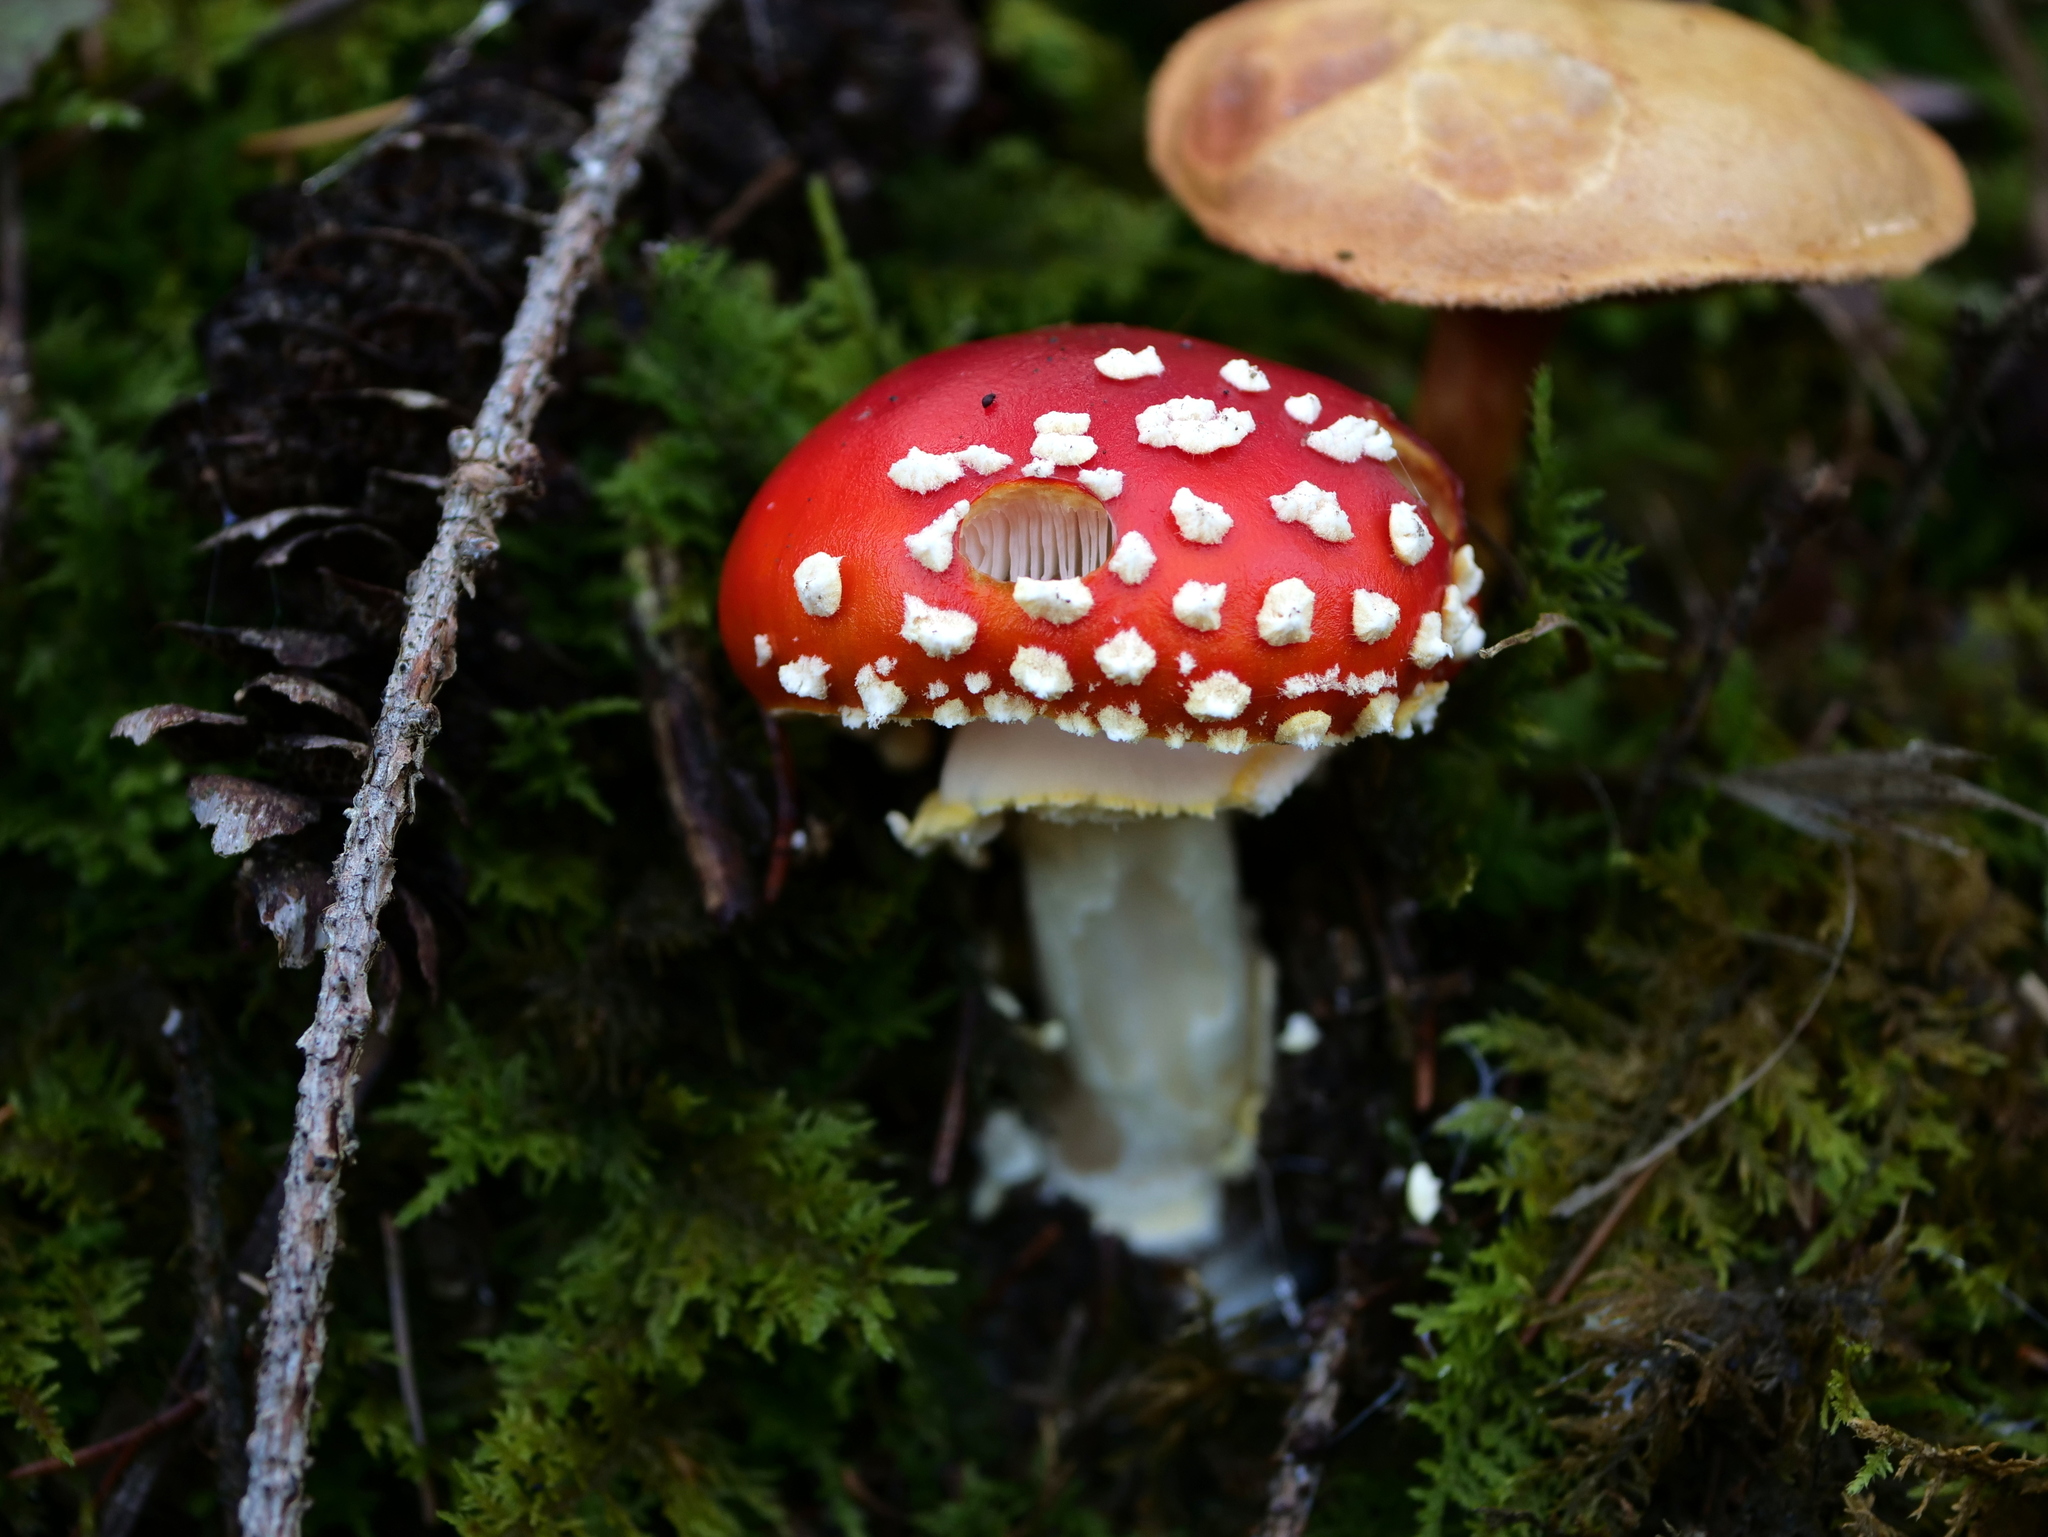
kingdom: Fungi
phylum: Basidiomycota
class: Agaricomycetes
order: Agaricales
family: Amanitaceae
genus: Amanita
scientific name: Amanita muscaria
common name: Fly agaric
